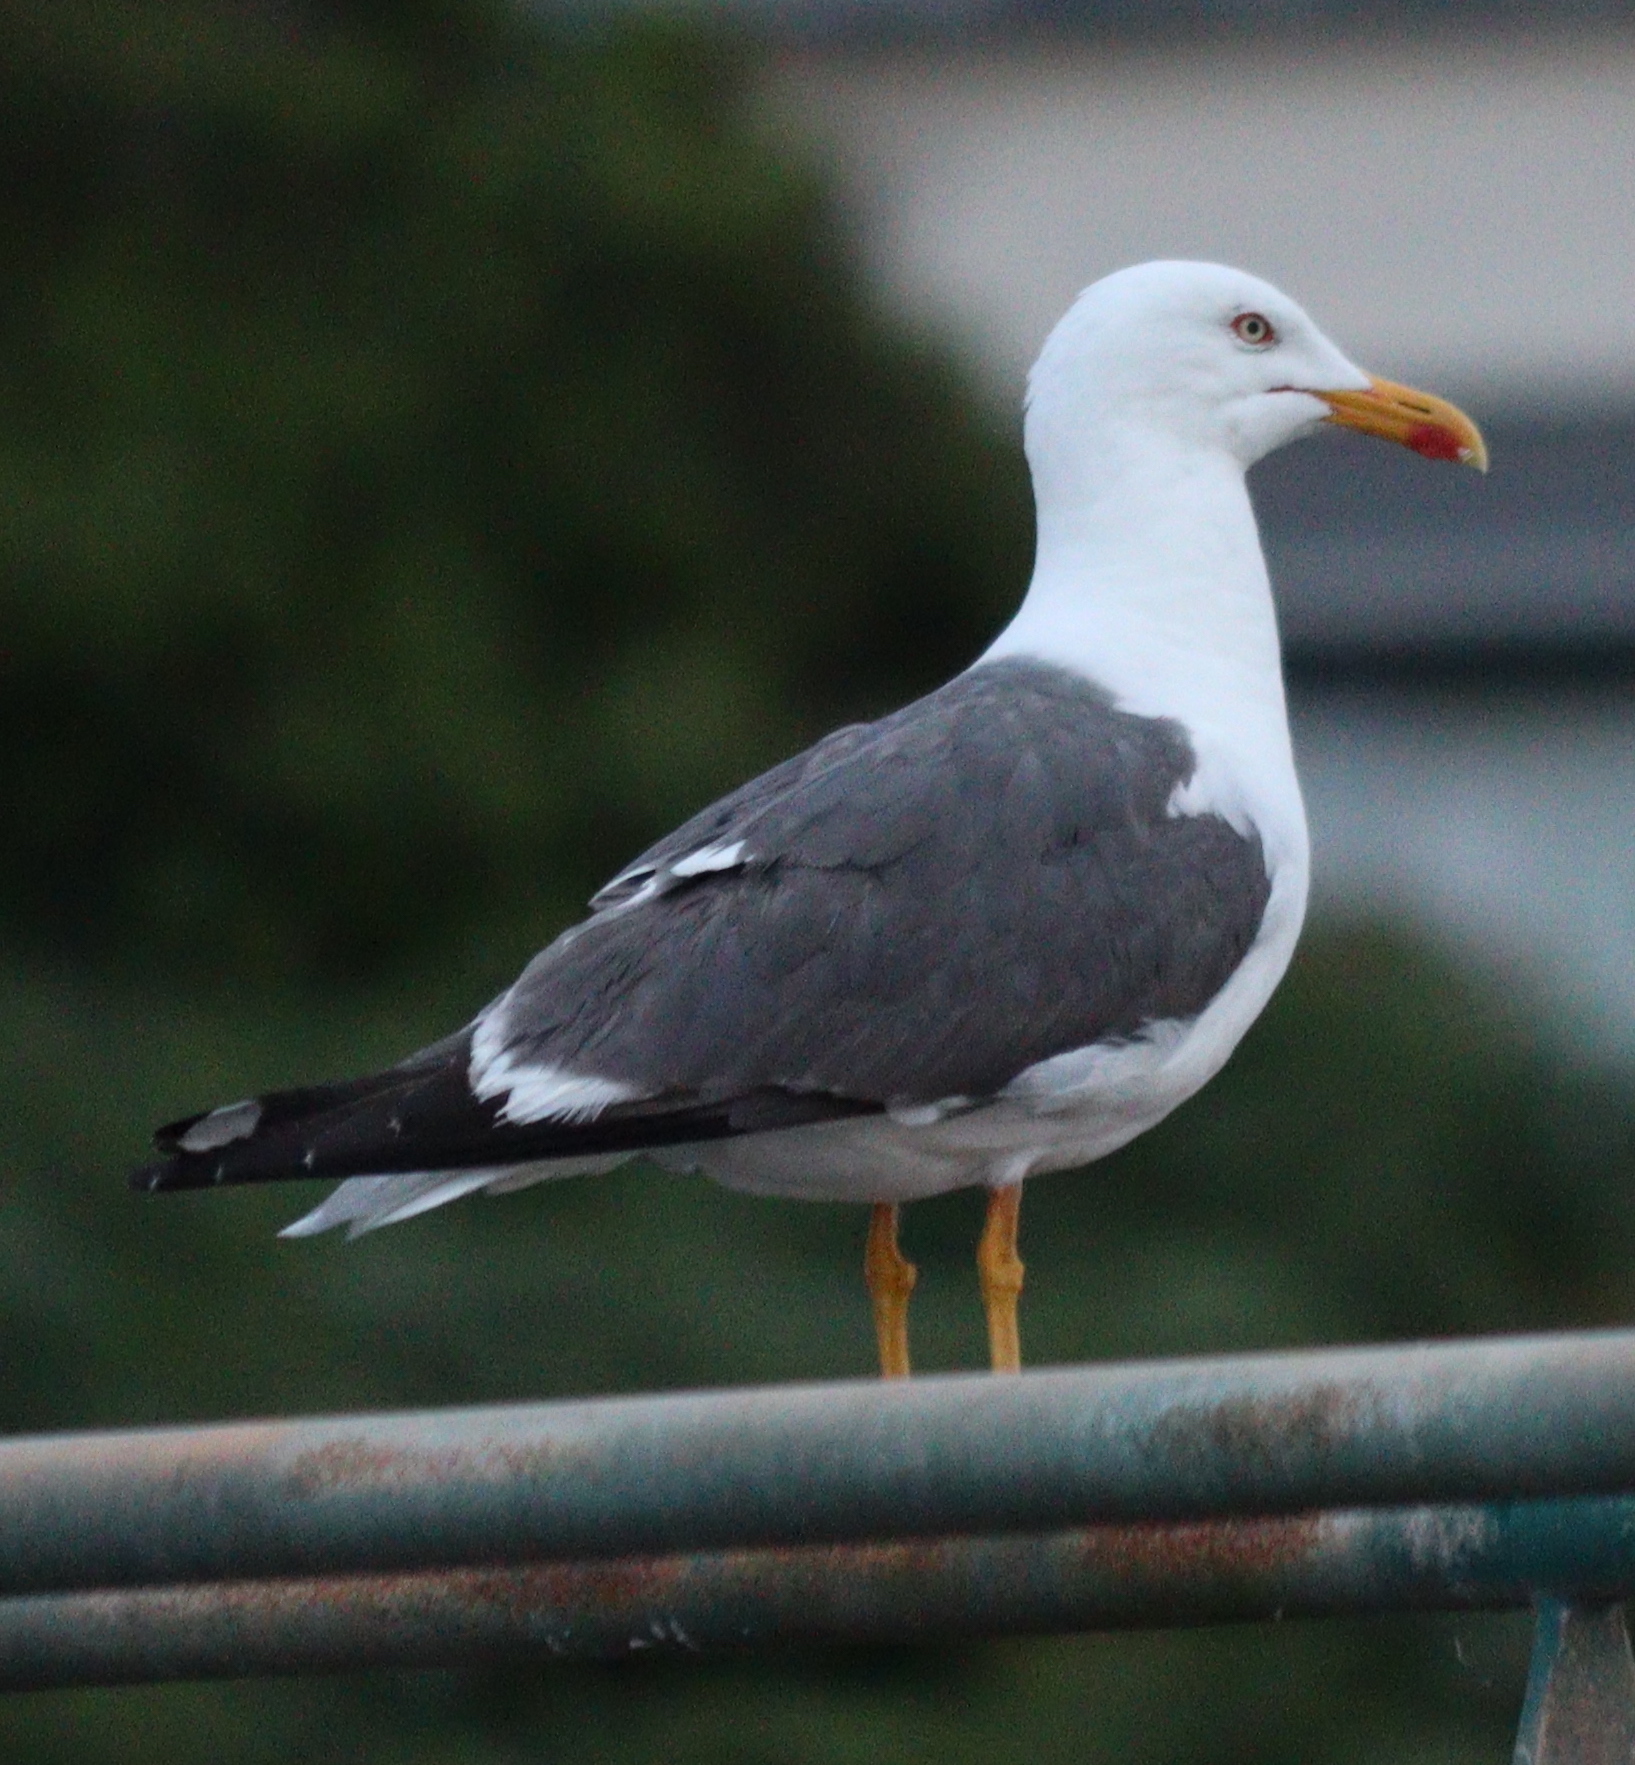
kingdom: Animalia
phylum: Chordata
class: Aves
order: Charadriiformes
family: Laridae
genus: Larus
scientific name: Larus fuscus
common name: Lesser black-backed gull
